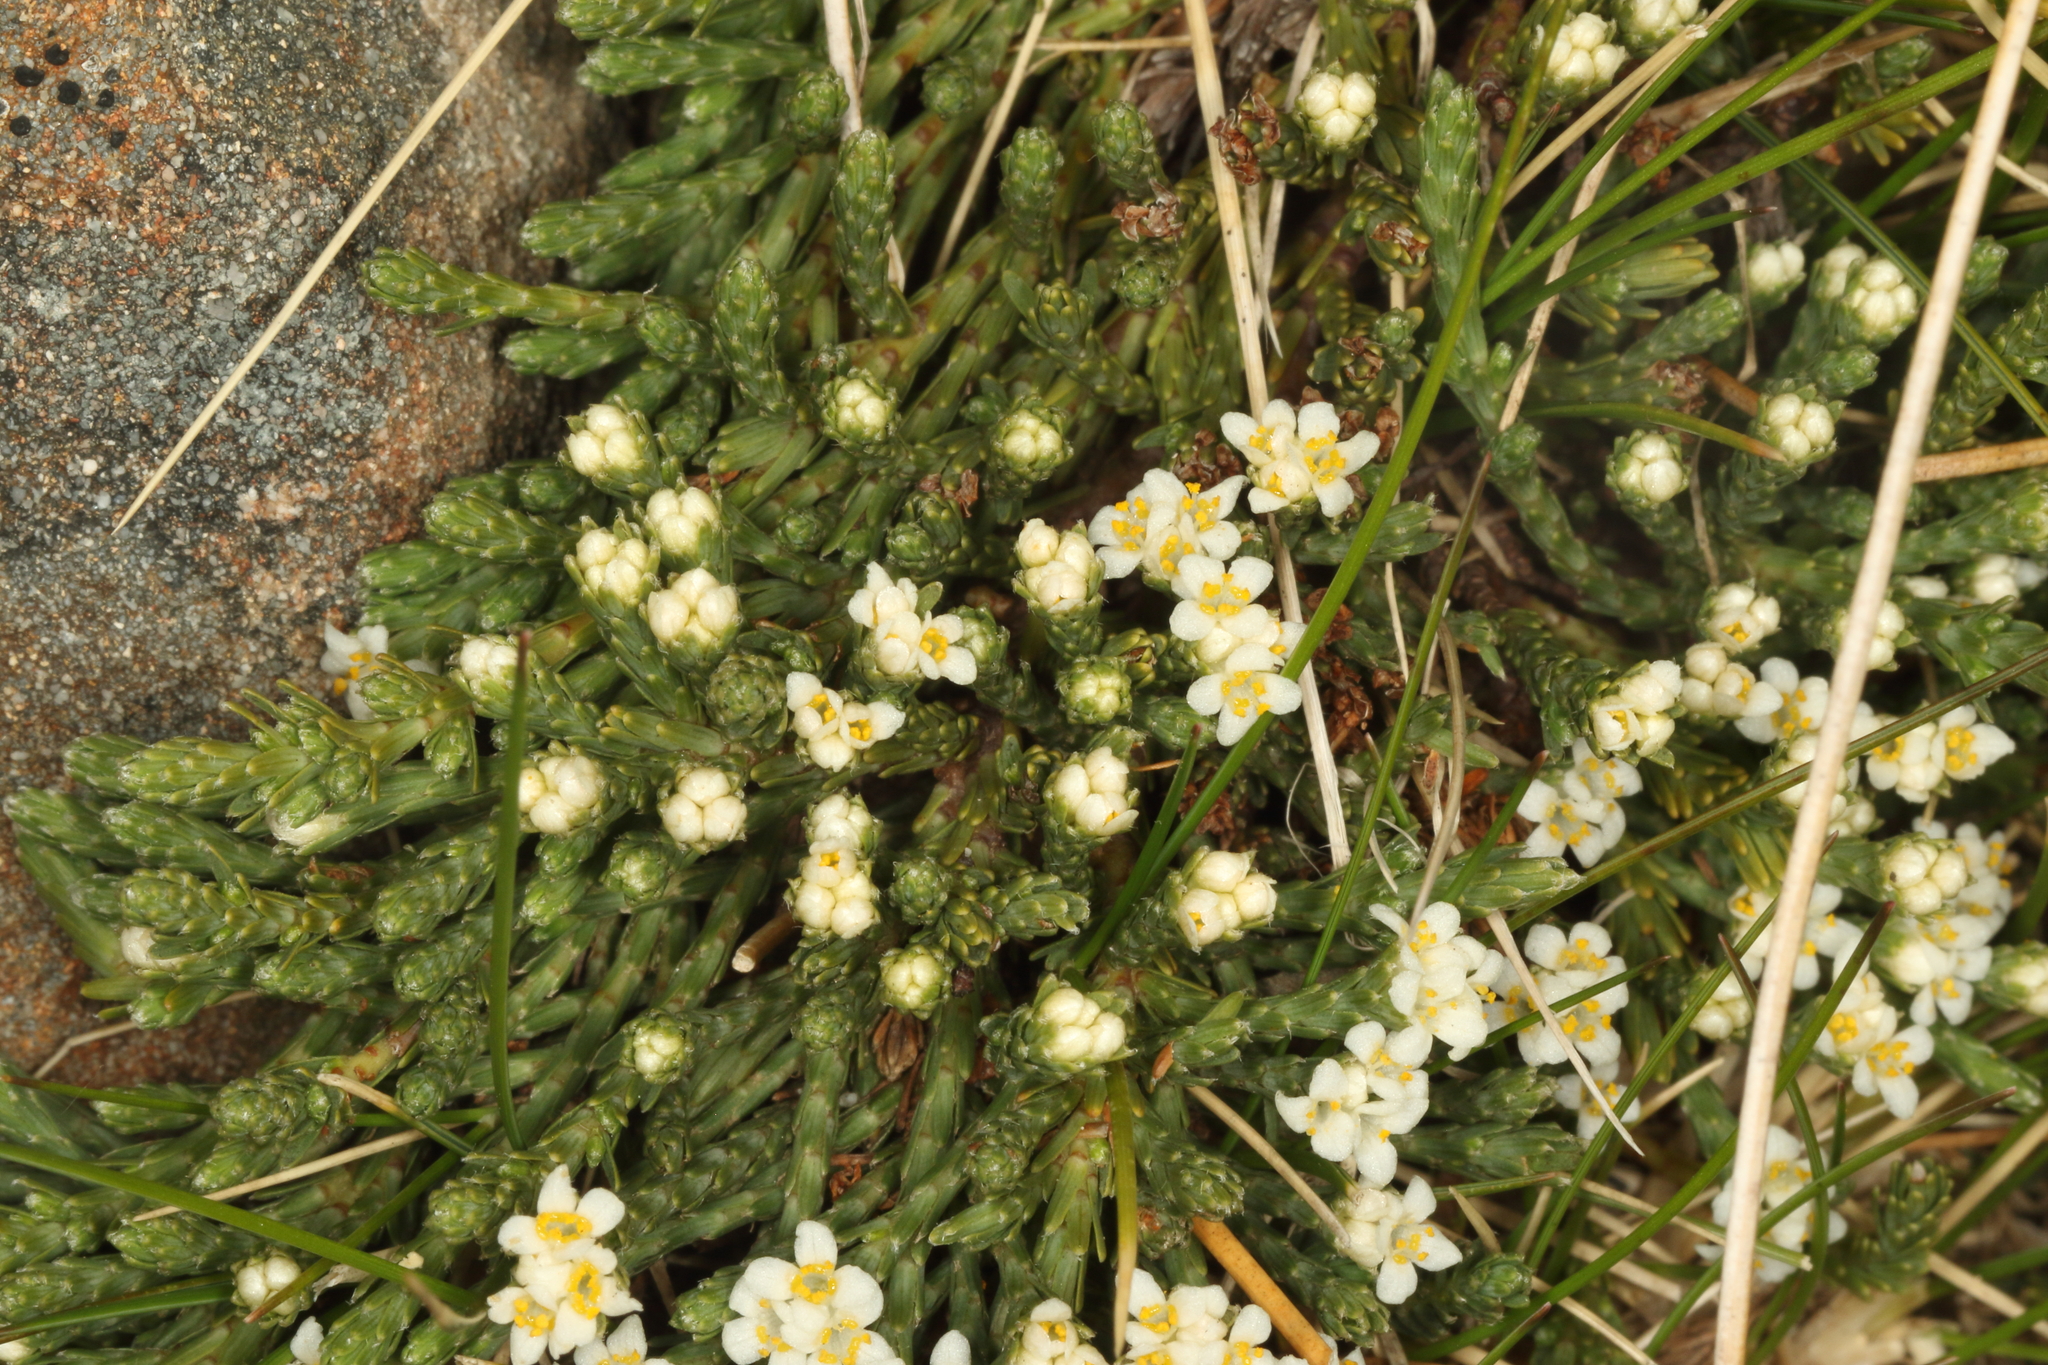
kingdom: Plantae
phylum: Tracheophyta
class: Magnoliopsida
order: Malvales
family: Thymelaeaceae
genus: Kelleria
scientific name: Kelleria dieffenbachii
